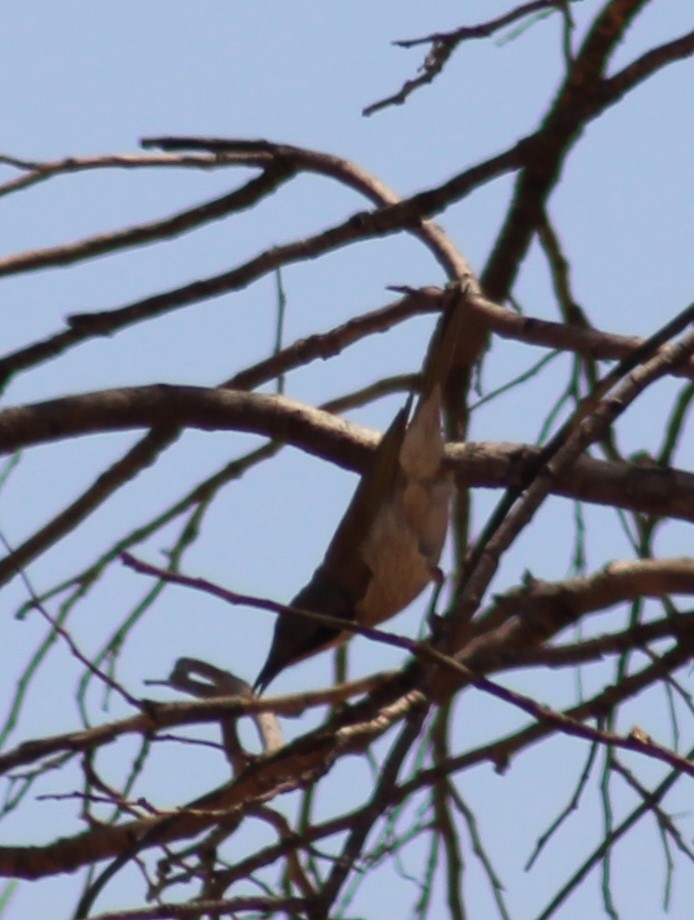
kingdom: Animalia
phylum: Chordata
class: Aves
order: Passeriformes
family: Meliphagidae
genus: Gavicalis
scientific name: Gavicalis virescens
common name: Singing honeyeater
